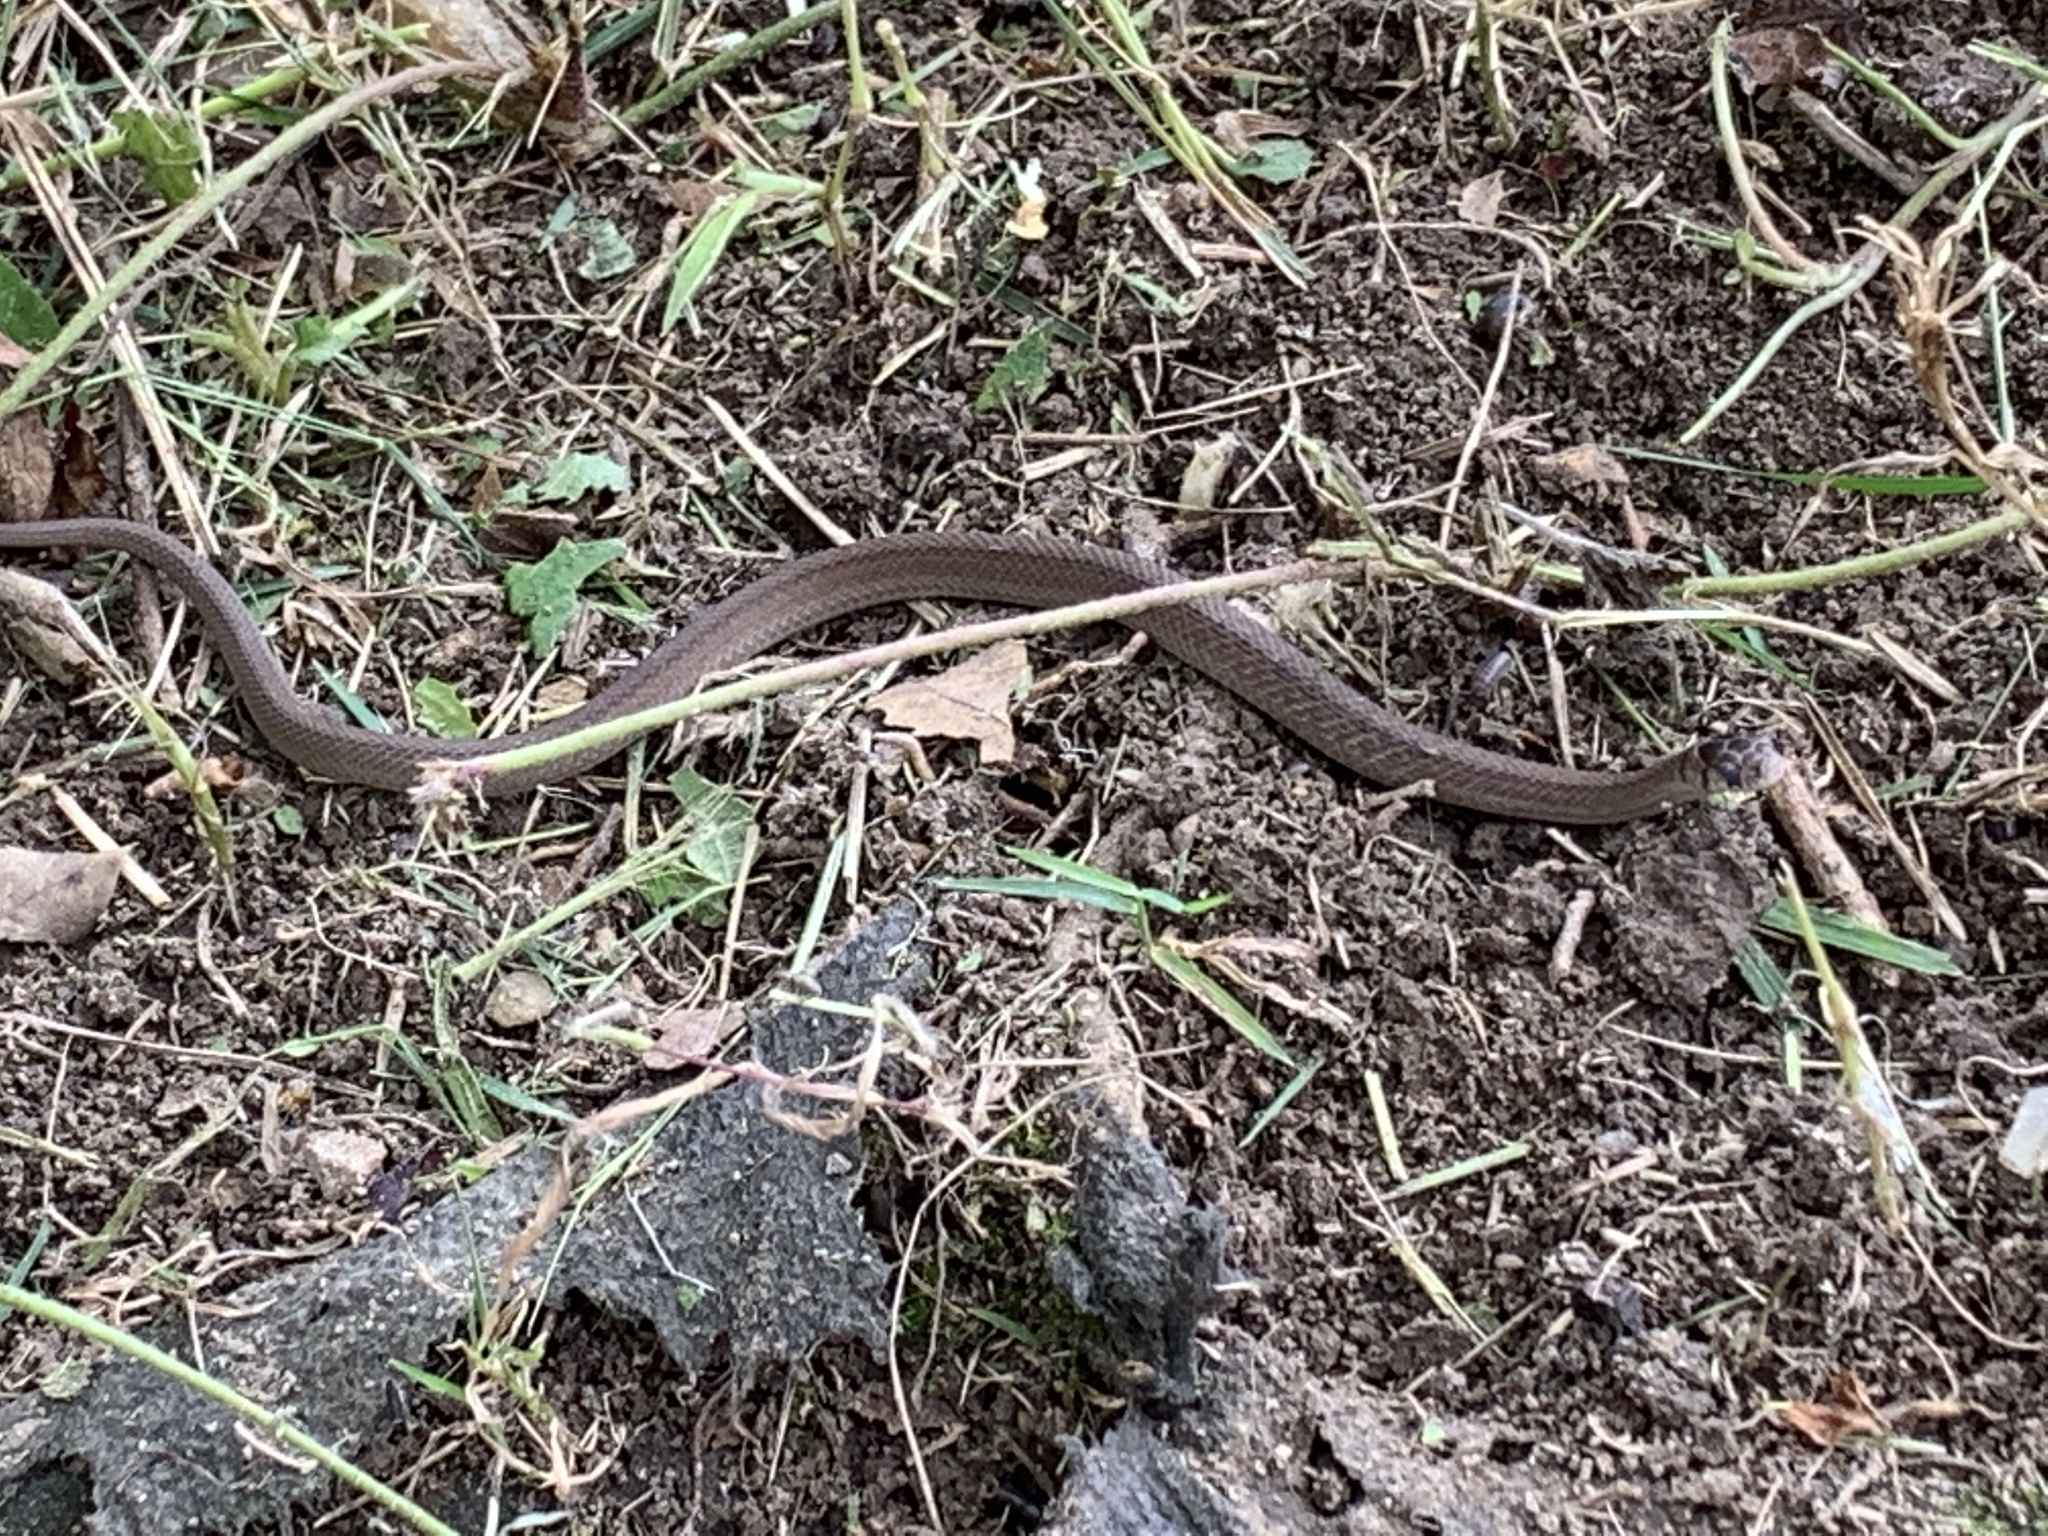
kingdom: Animalia
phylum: Chordata
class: Squamata
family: Colubridae
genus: Storeria
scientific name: Storeria dekayi
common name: (dekay’s) brown snake
